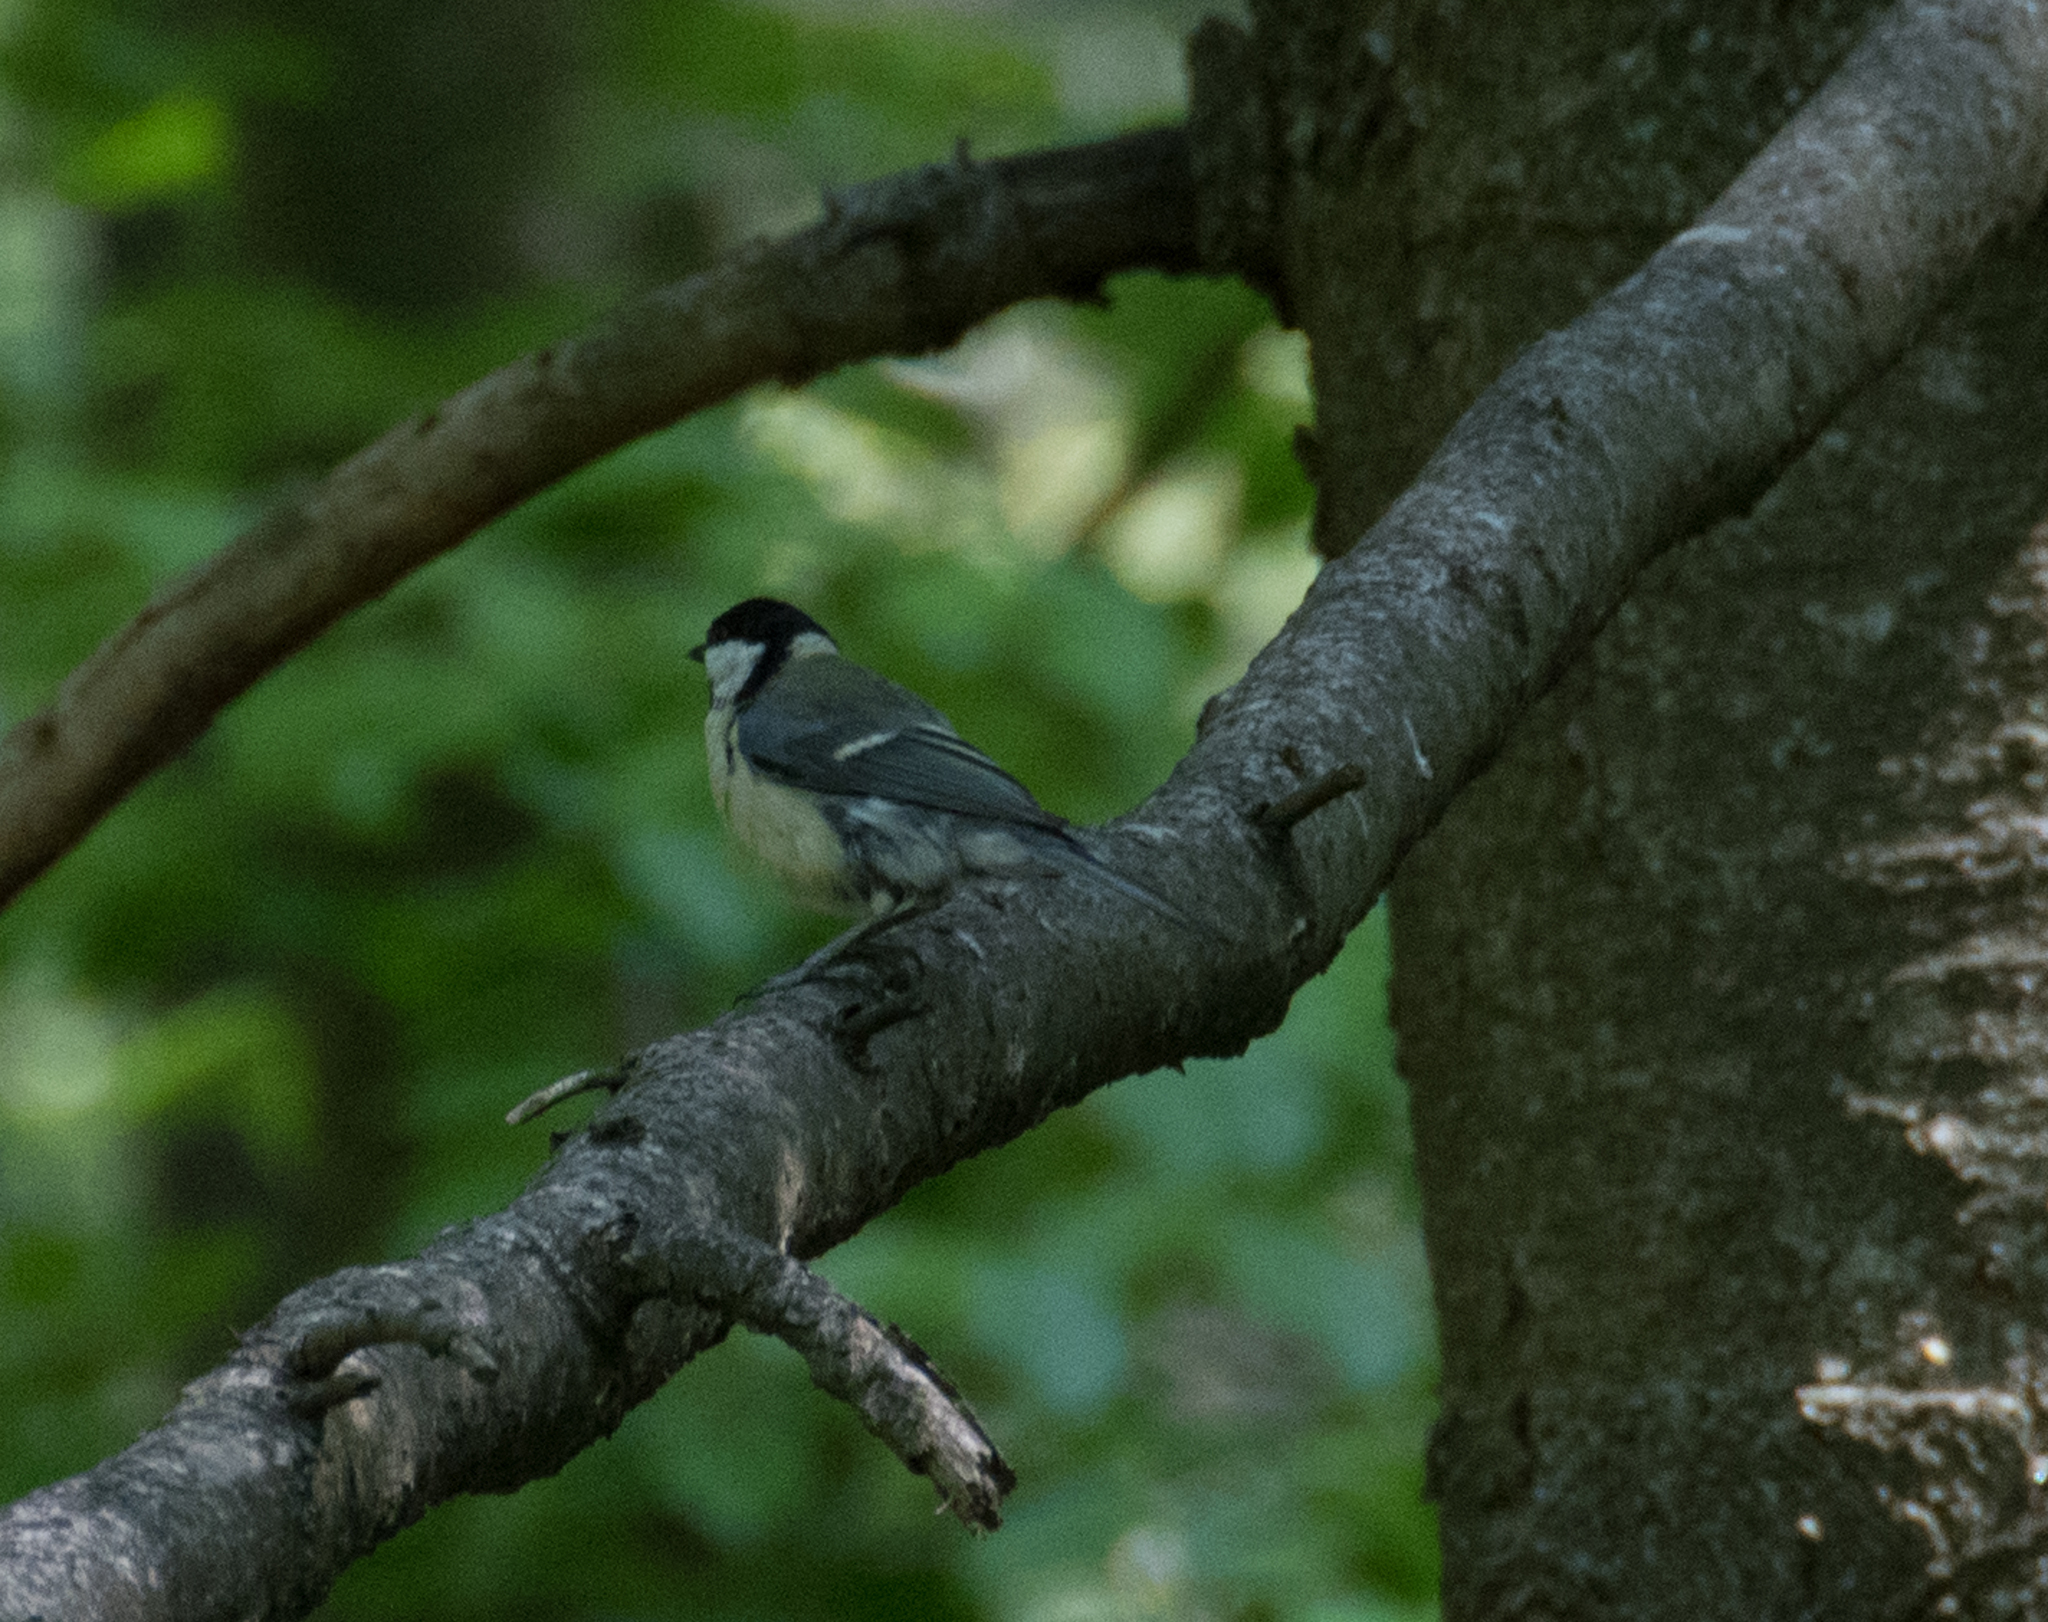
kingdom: Animalia
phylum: Chordata
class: Aves
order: Passeriformes
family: Paridae
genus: Parus
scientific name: Parus major
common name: Great tit
